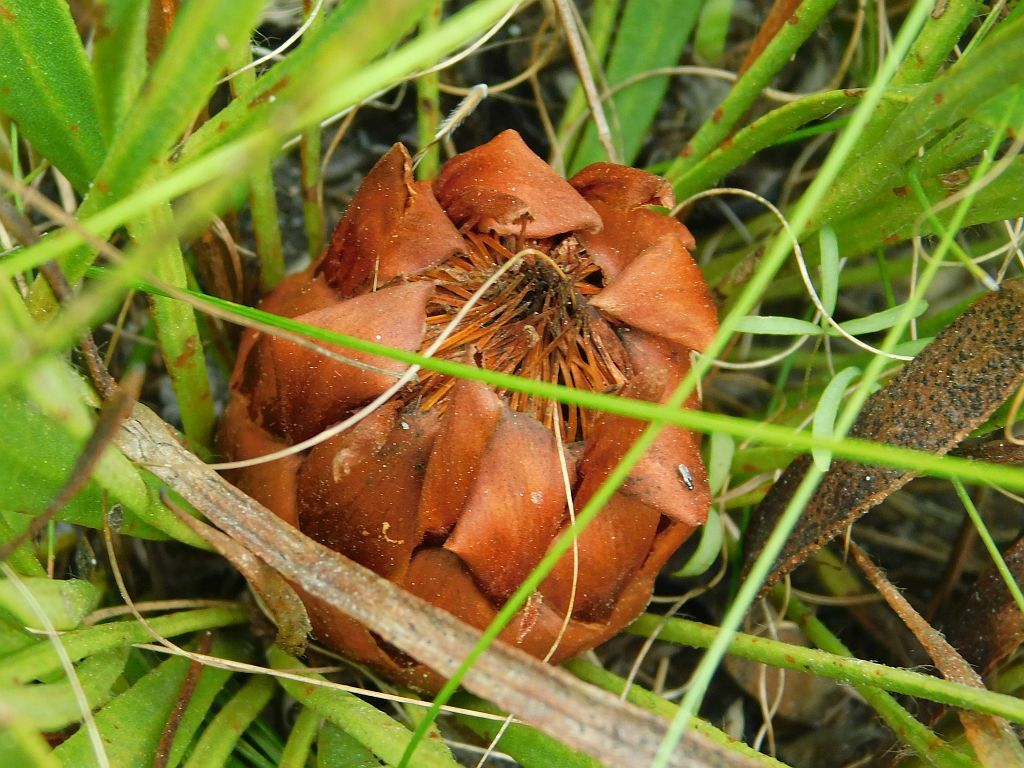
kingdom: Plantae
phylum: Tracheophyta
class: Magnoliopsida
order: Proteales
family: Proteaceae
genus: Protea
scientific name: Protea scabra
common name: Sandpaper-leaf sugarbush
